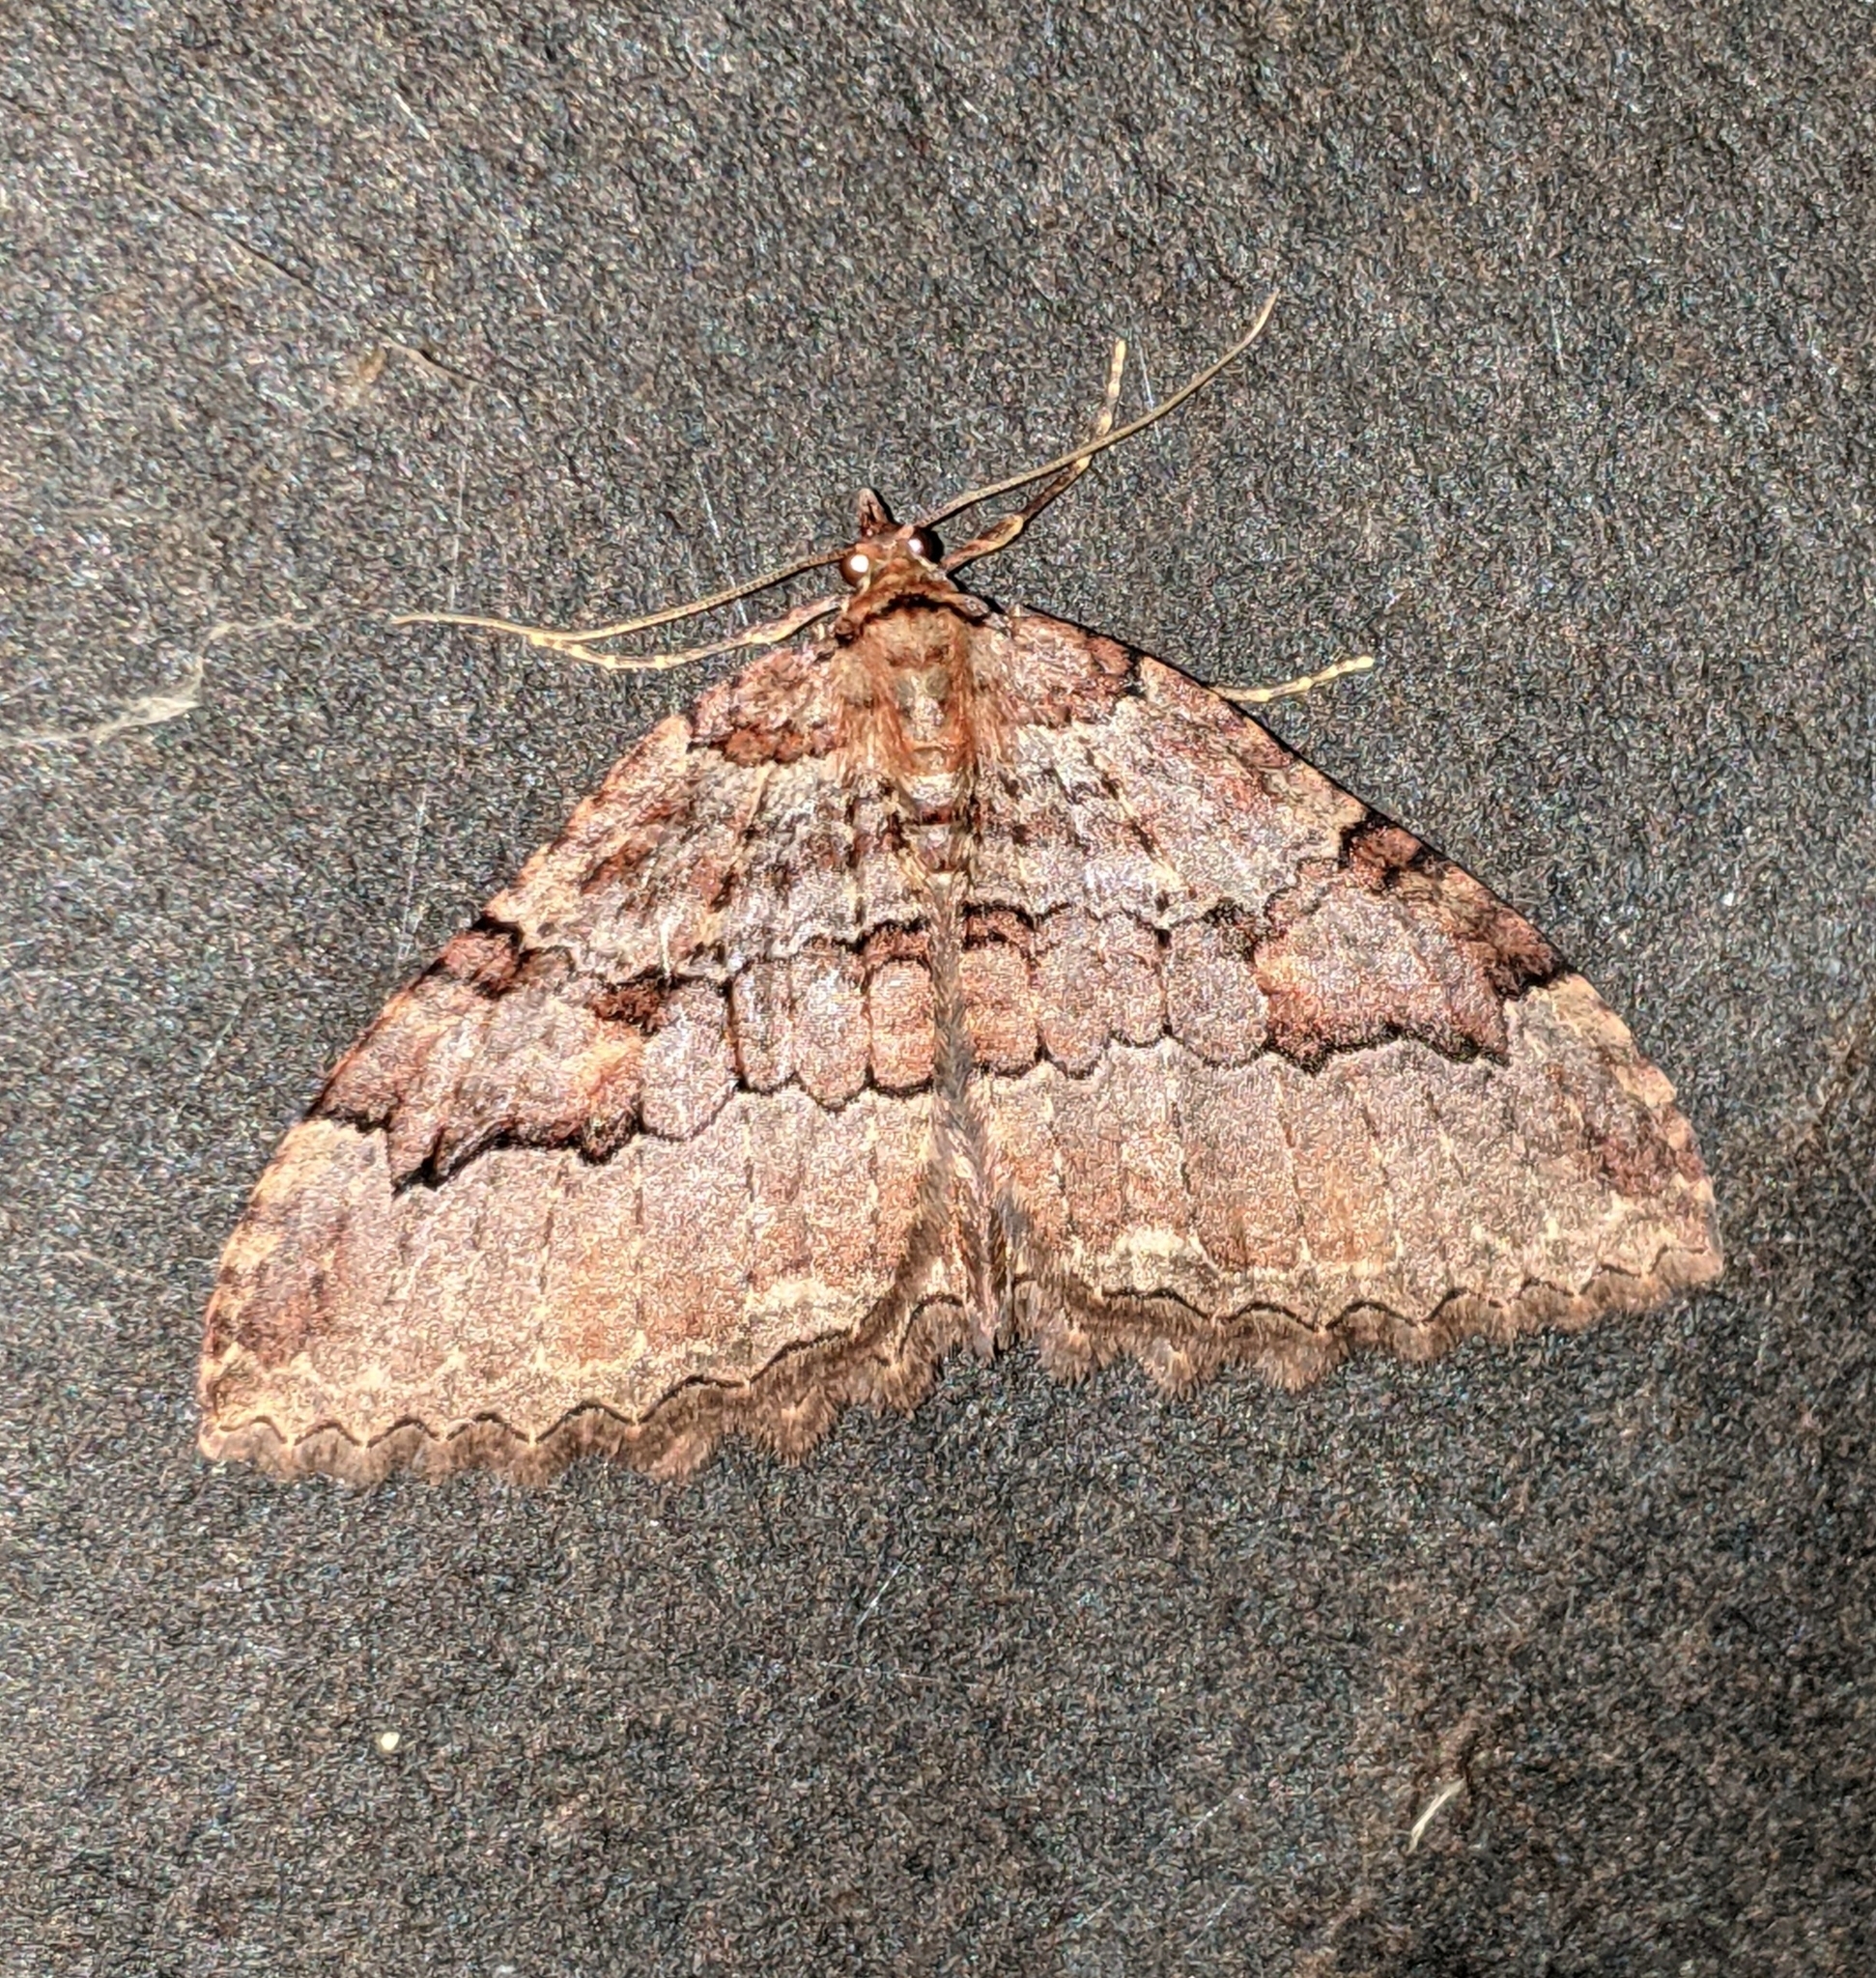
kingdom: Animalia
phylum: Arthropoda
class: Insecta
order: Lepidoptera
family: Geometridae
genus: Triphosa
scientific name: Triphosa haesitata
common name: Tissue moth
